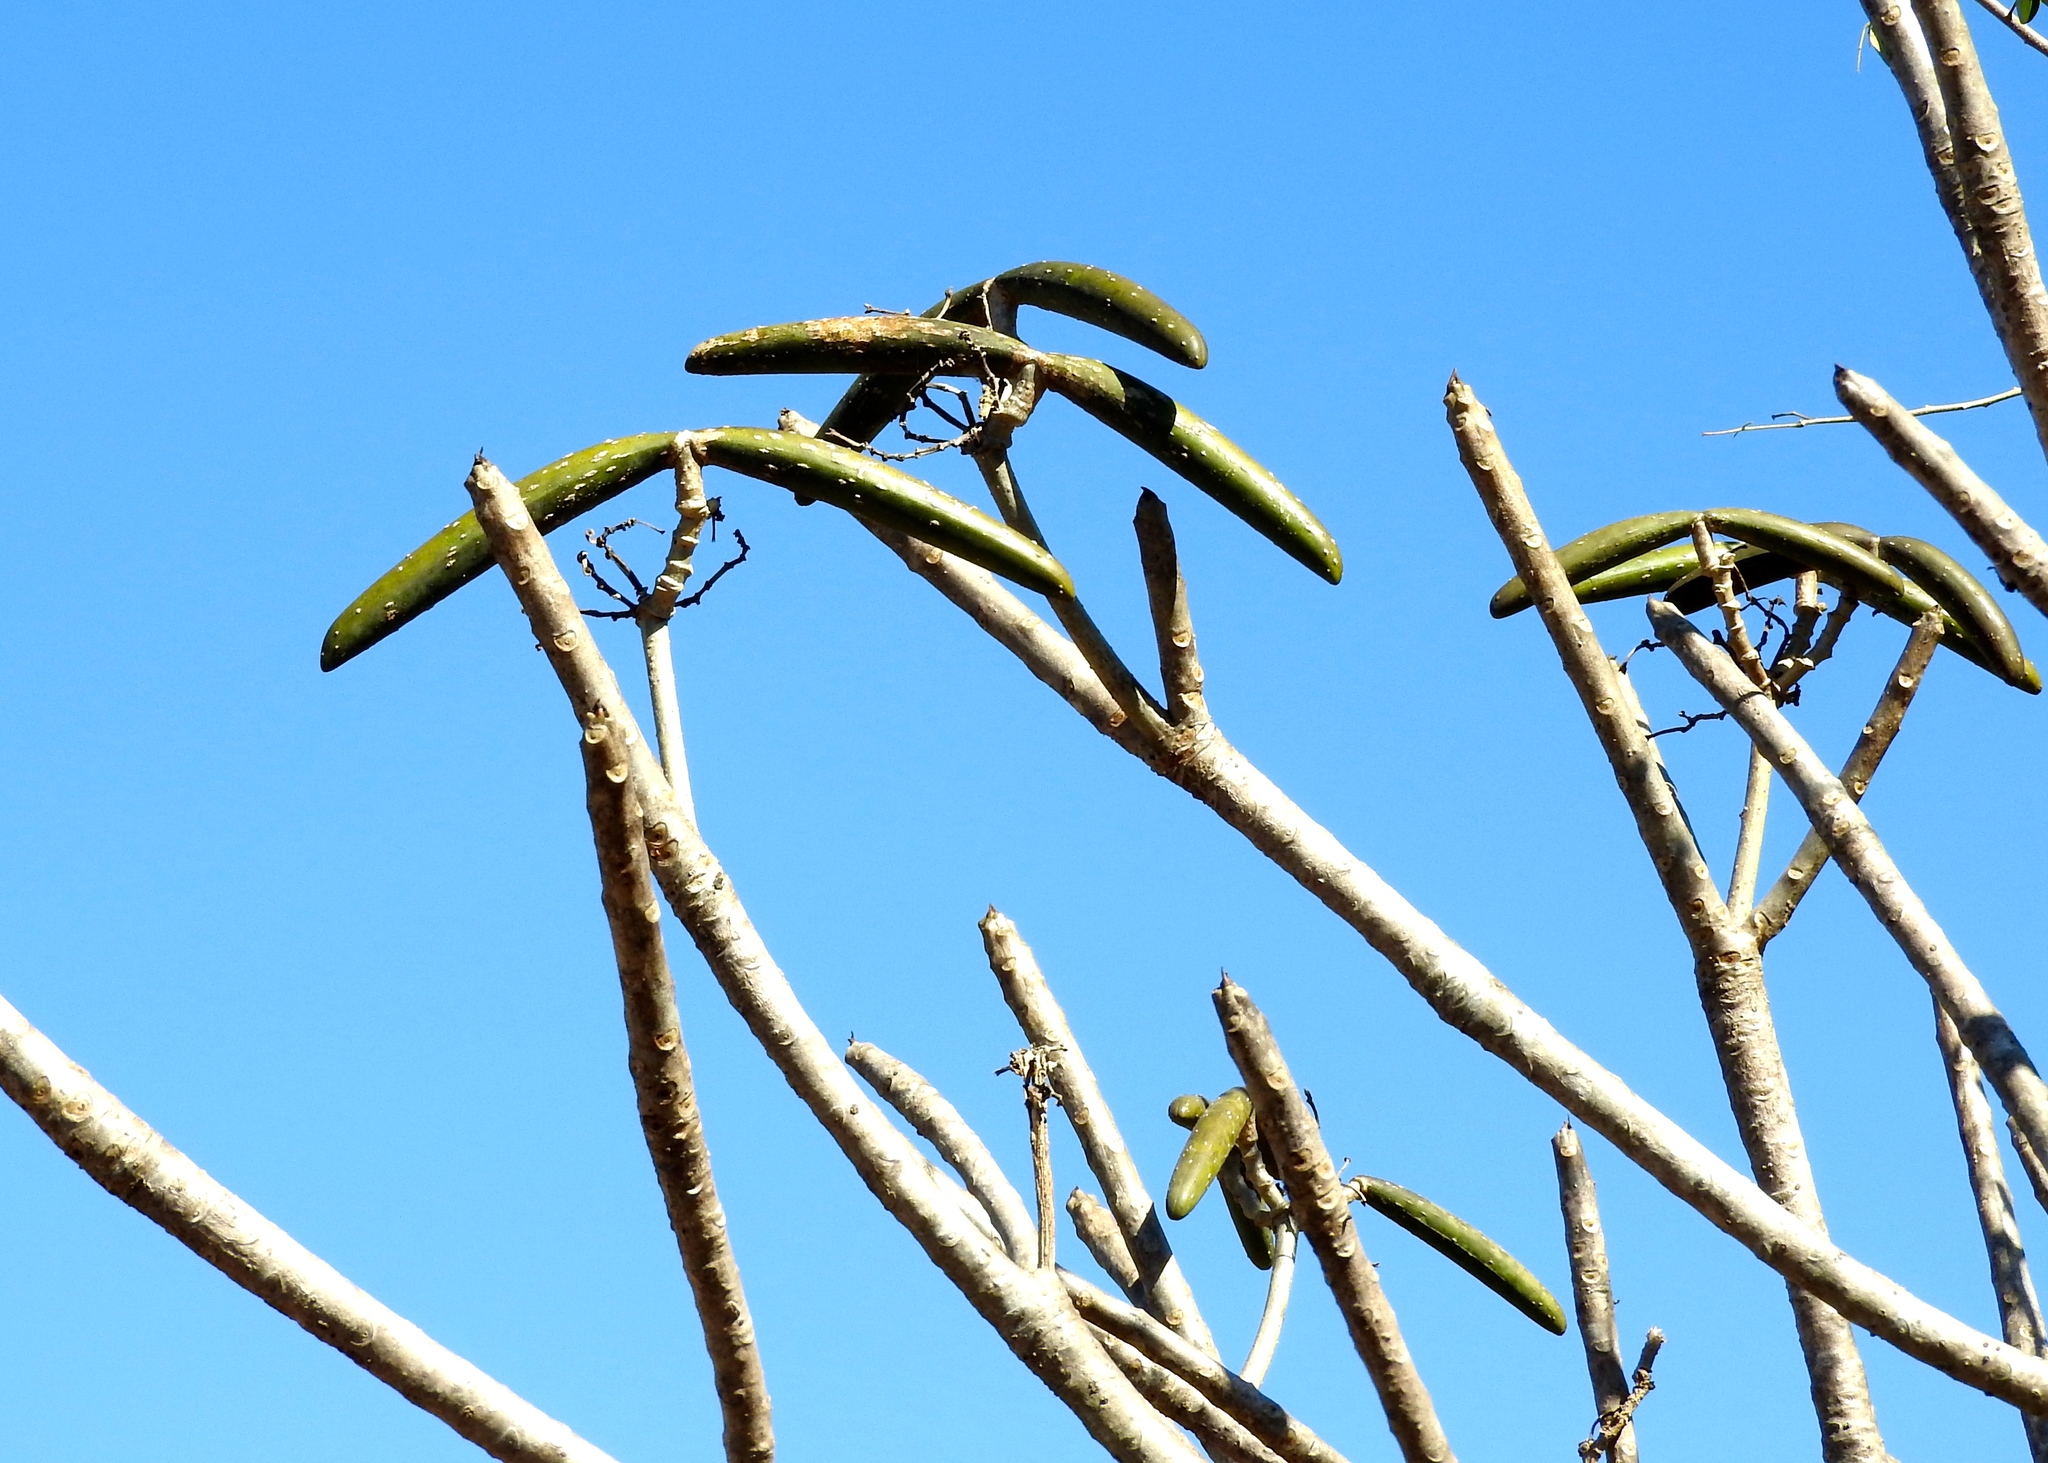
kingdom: Plantae
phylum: Tracheophyta
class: Magnoliopsida
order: Gentianales
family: Apocynaceae
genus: Plumeria
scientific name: Plumeria rubra
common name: Pagoda-tree
